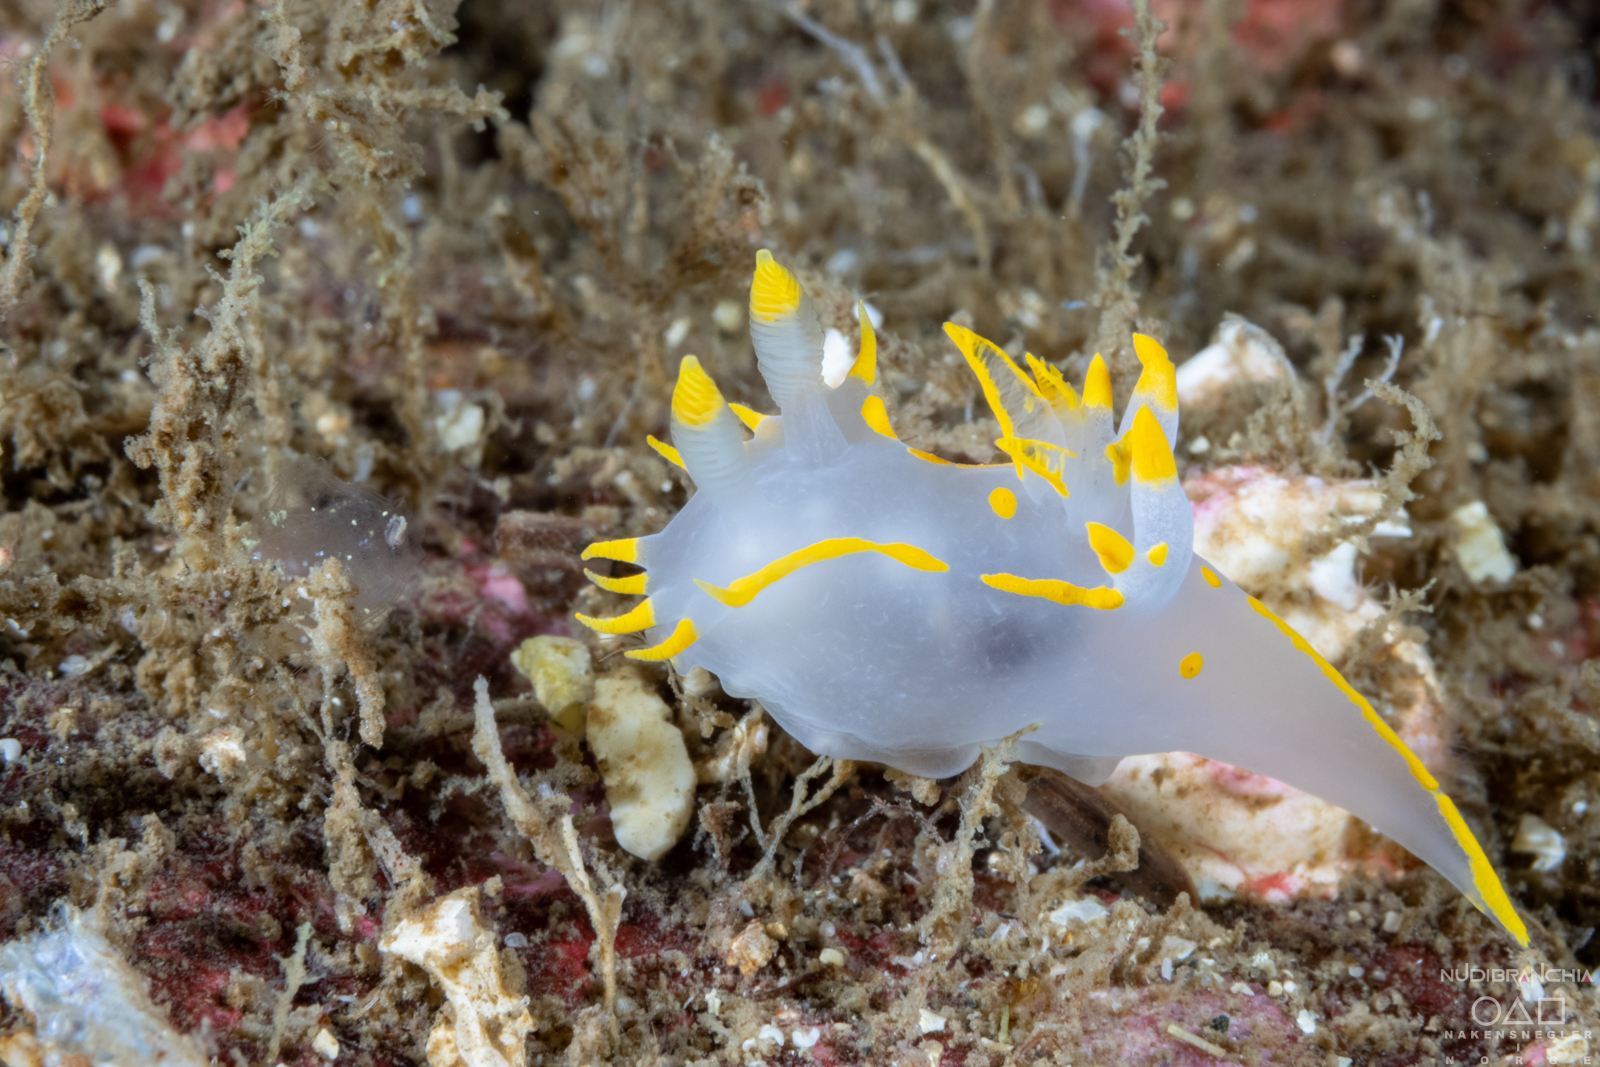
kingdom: Animalia
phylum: Mollusca
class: Gastropoda
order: Nudibranchia
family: Polyceridae
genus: Polycera
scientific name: Polycera faeroensis
